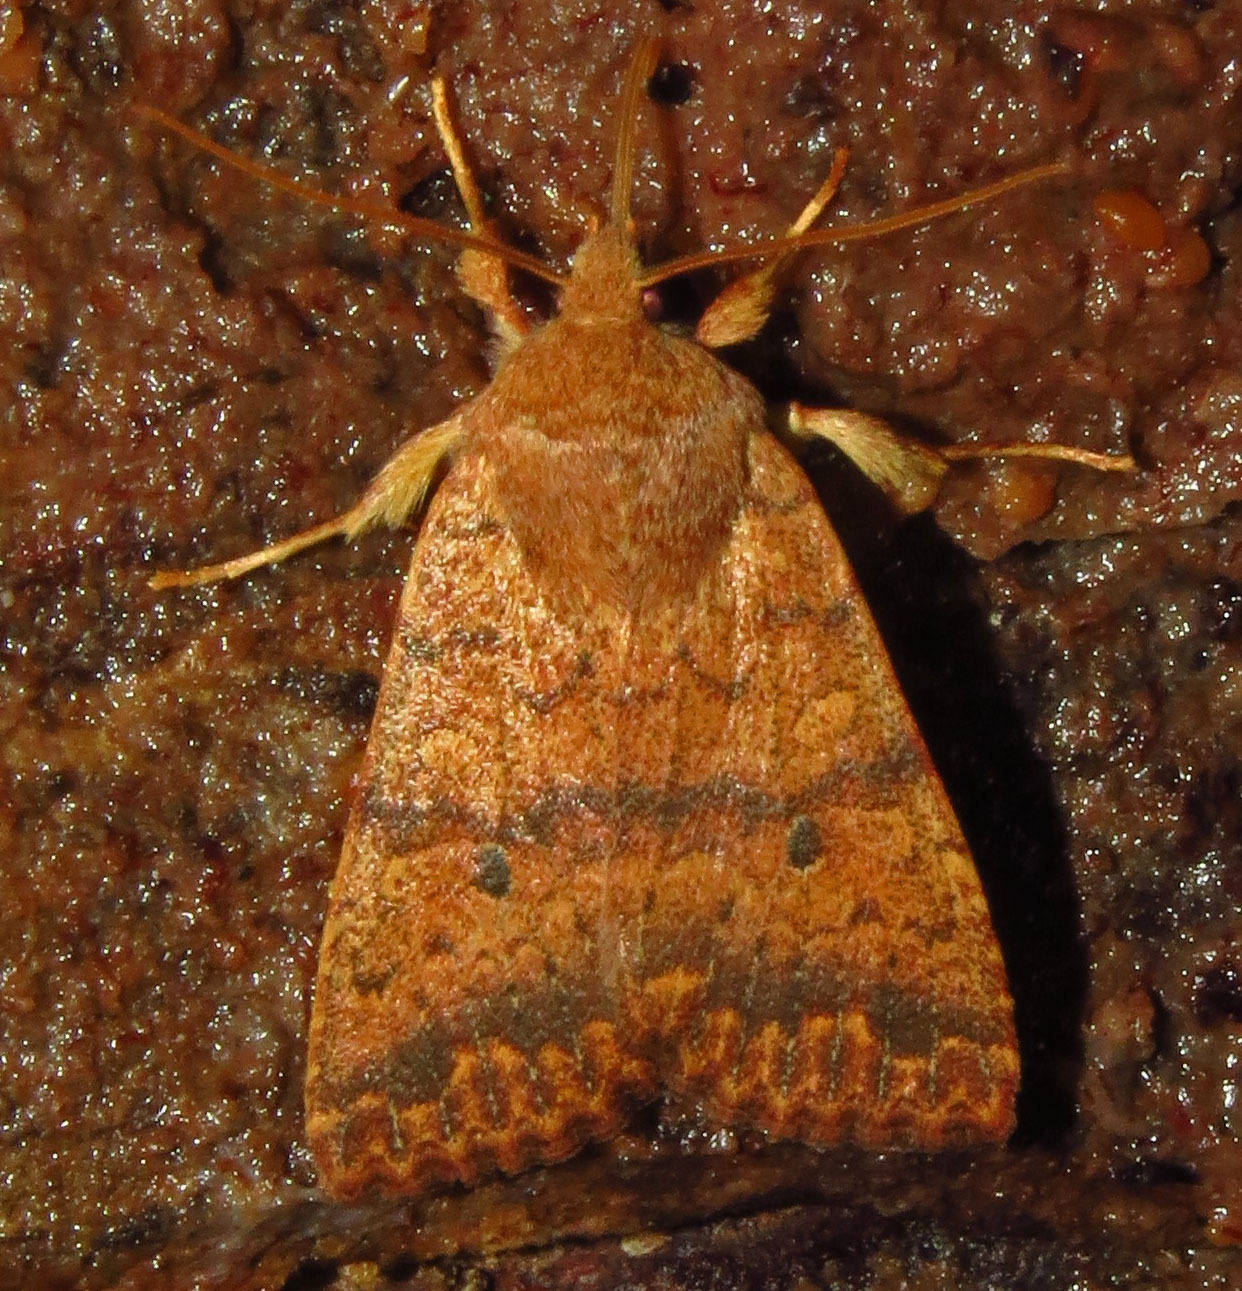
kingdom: Animalia
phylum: Arthropoda
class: Insecta
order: Lepidoptera
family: Noctuidae
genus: Agrochola
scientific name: Agrochola bicolorago
